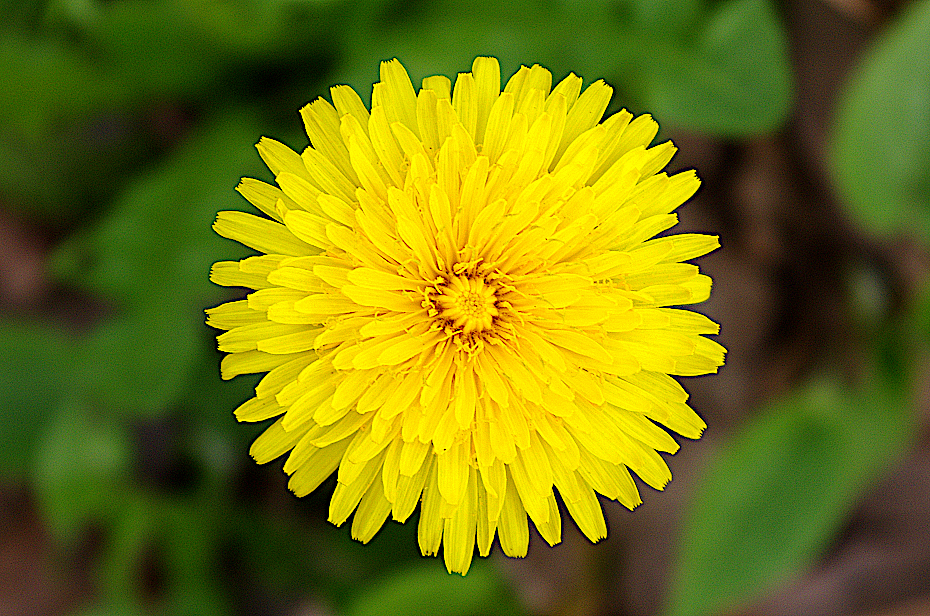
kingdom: Plantae
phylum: Tracheophyta
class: Magnoliopsida
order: Asterales
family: Asteraceae
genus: Taraxacum
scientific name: Taraxacum officinale
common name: Common dandelion
